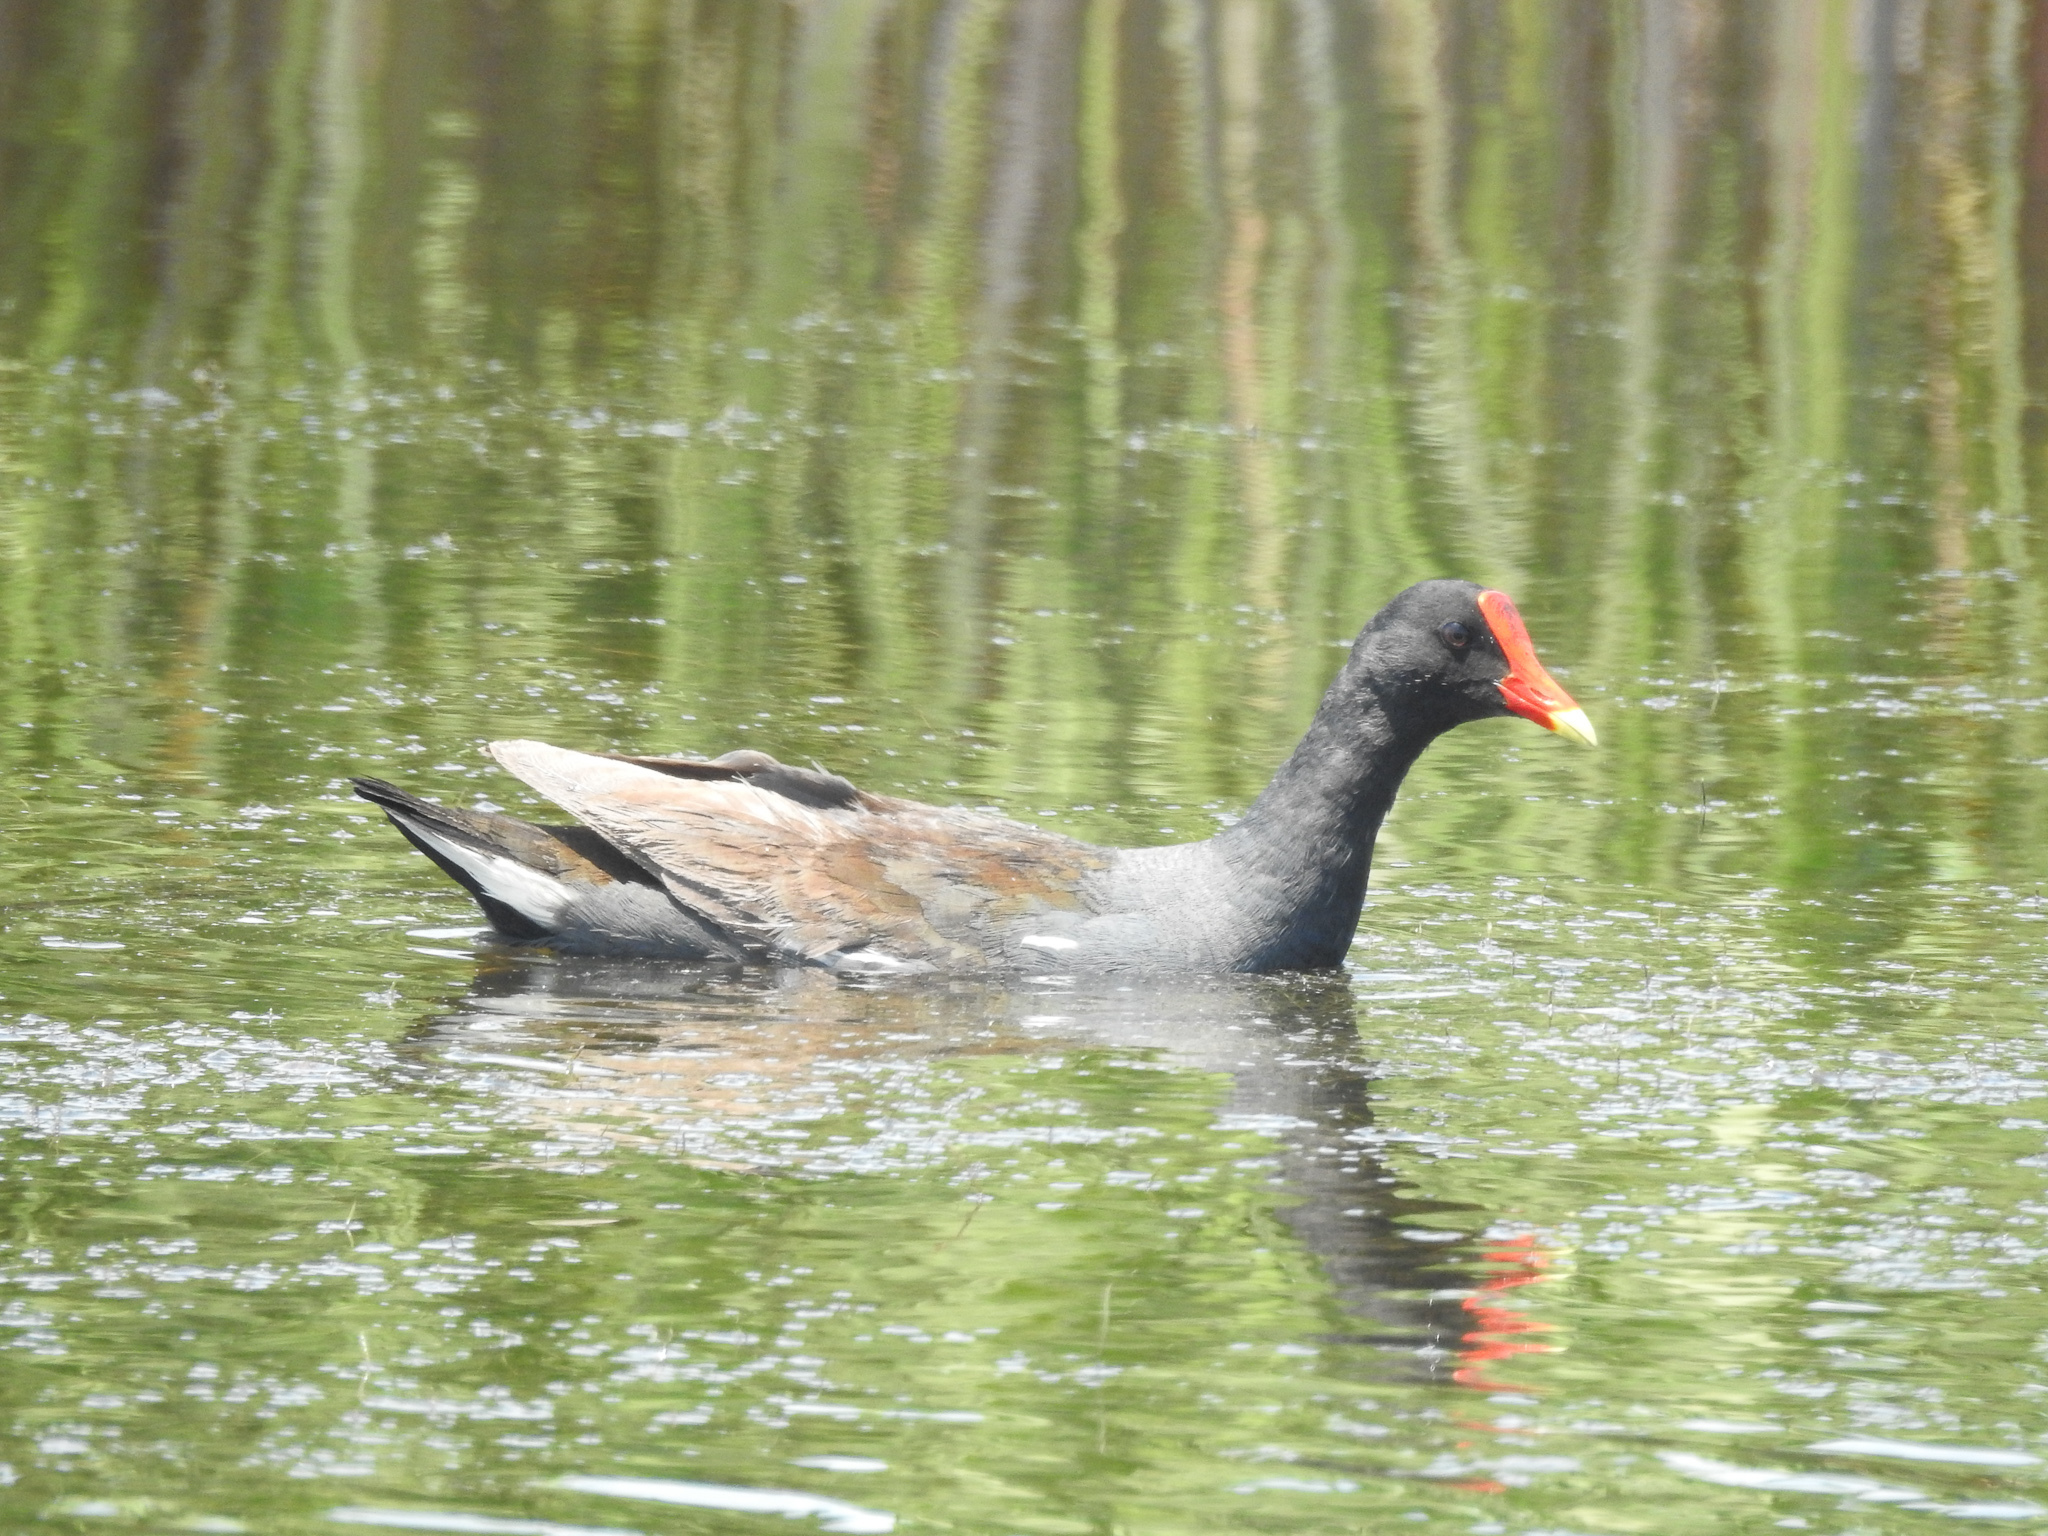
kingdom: Animalia
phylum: Chordata
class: Aves
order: Gruiformes
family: Rallidae
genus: Gallinula
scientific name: Gallinula chloropus
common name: Common moorhen
